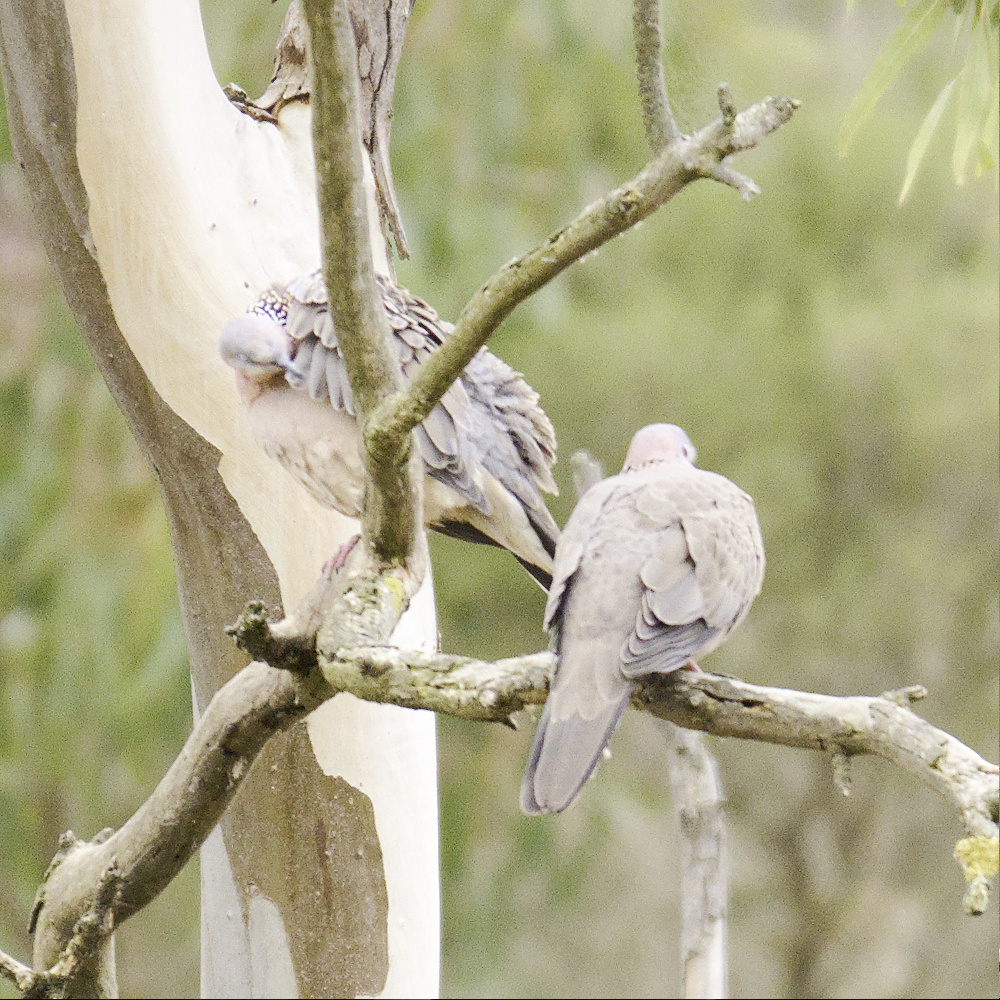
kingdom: Animalia
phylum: Chordata
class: Aves
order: Columbiformes
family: Columbidae
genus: Spilopelia
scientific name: Spilopelia chinensis
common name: Spotted dove
